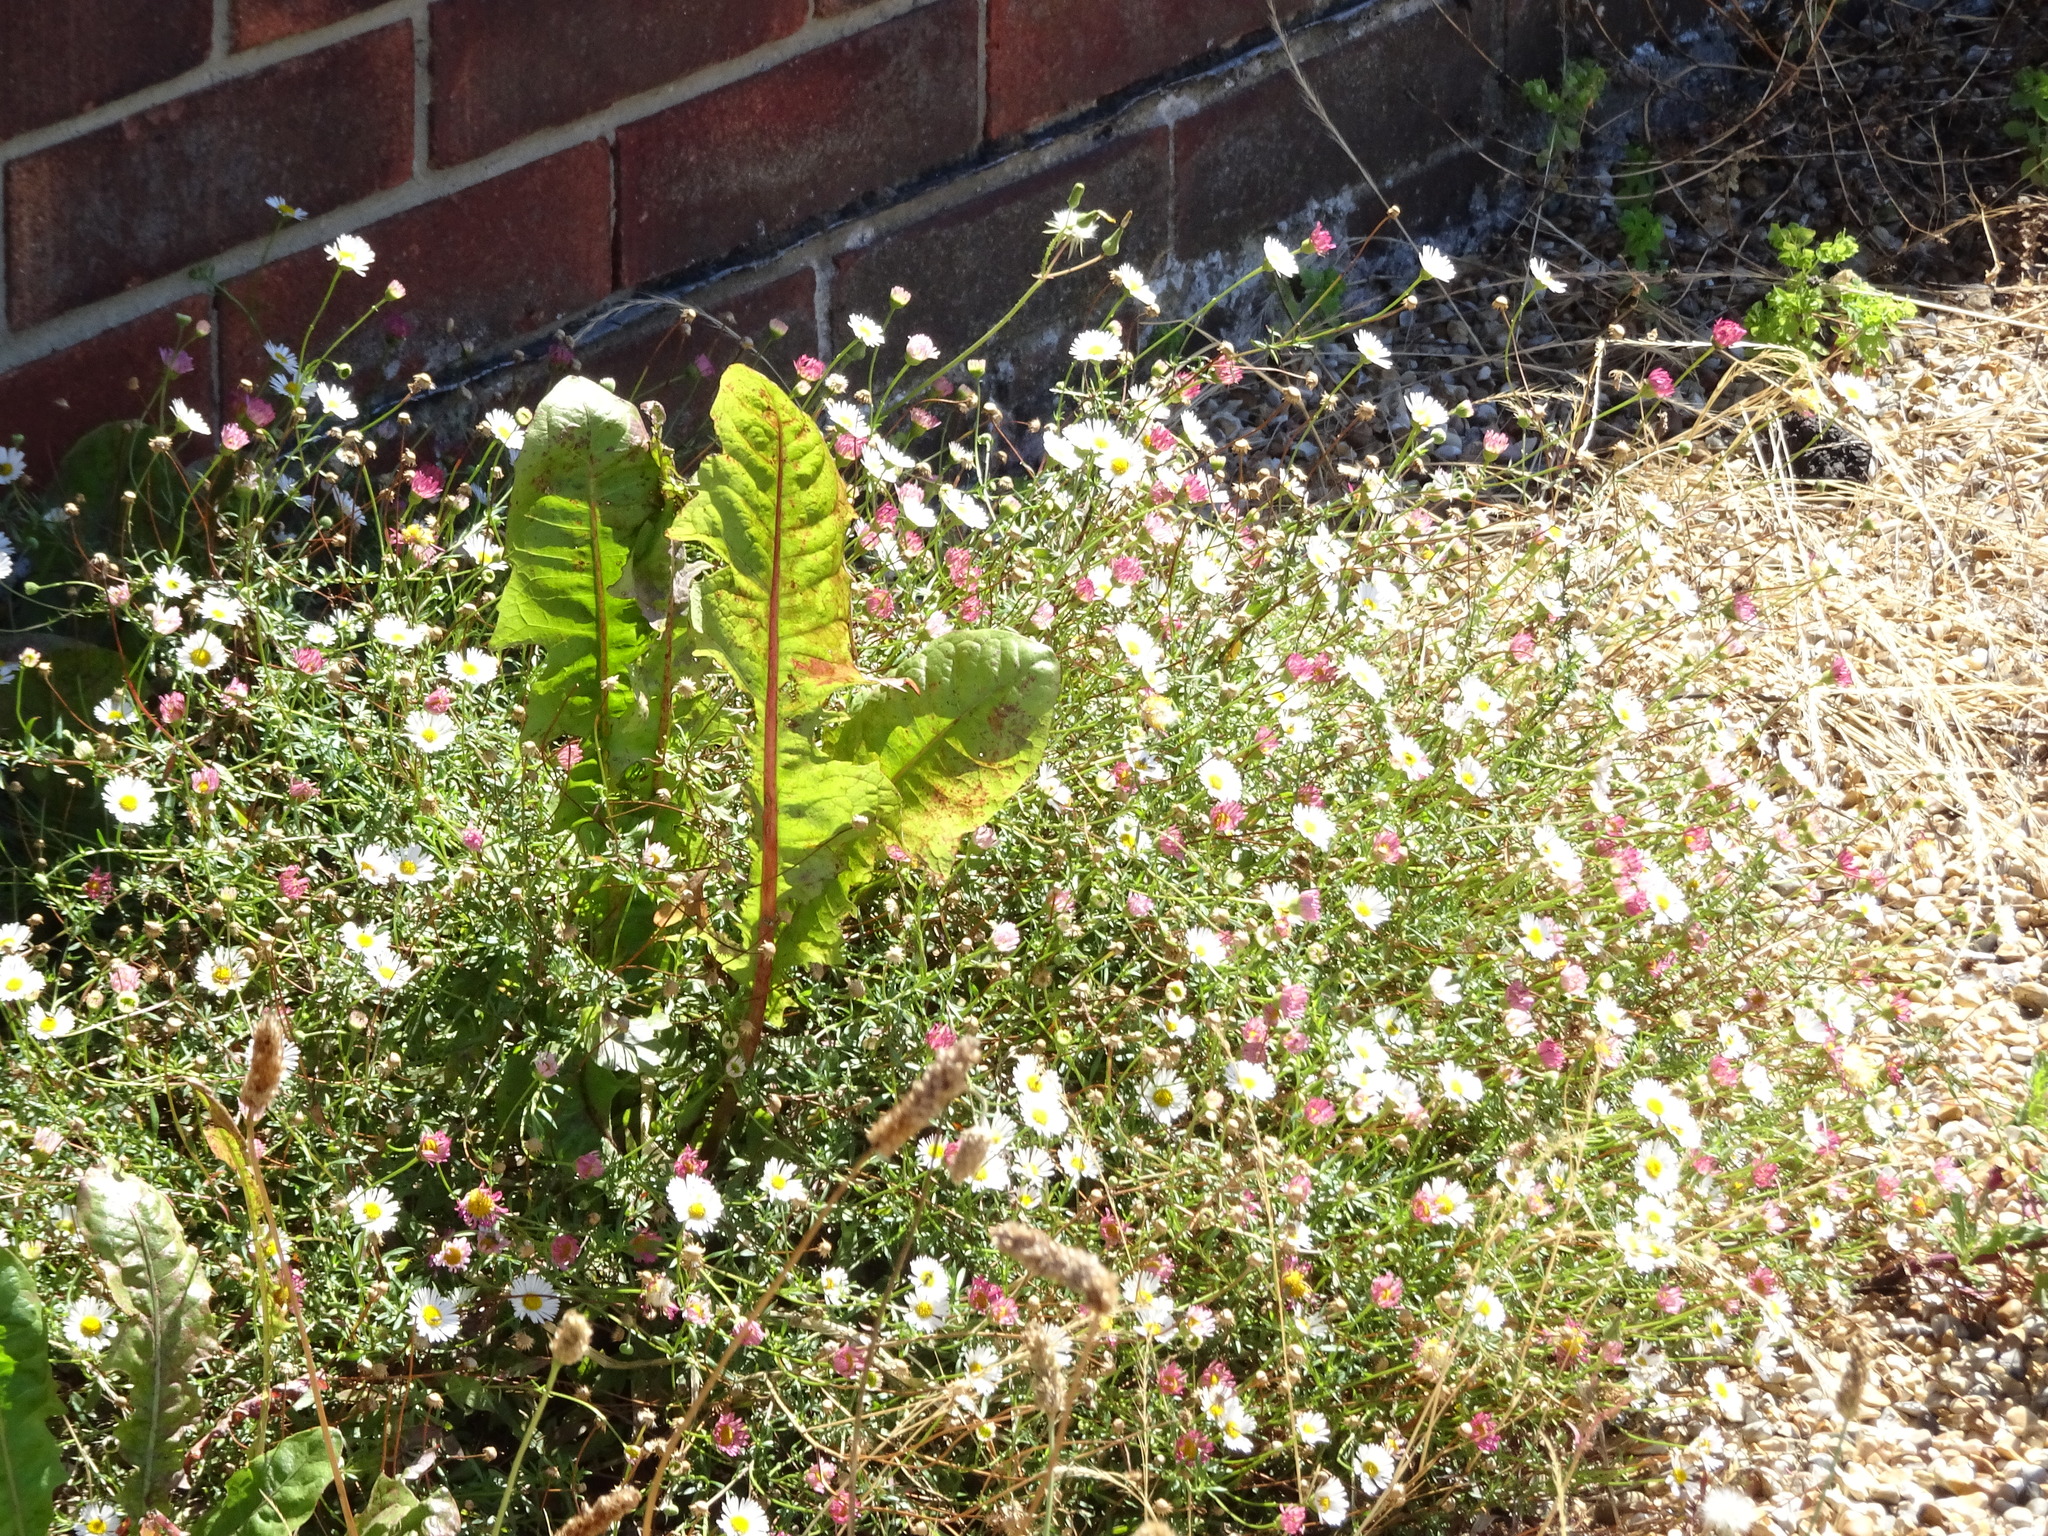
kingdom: Plantae
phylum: Tracheophyta
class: Magnoliopsida
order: Asterales
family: Asteraceae
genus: Erigeron
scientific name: Erigeron karvinskianus
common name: Mexican fleabane
